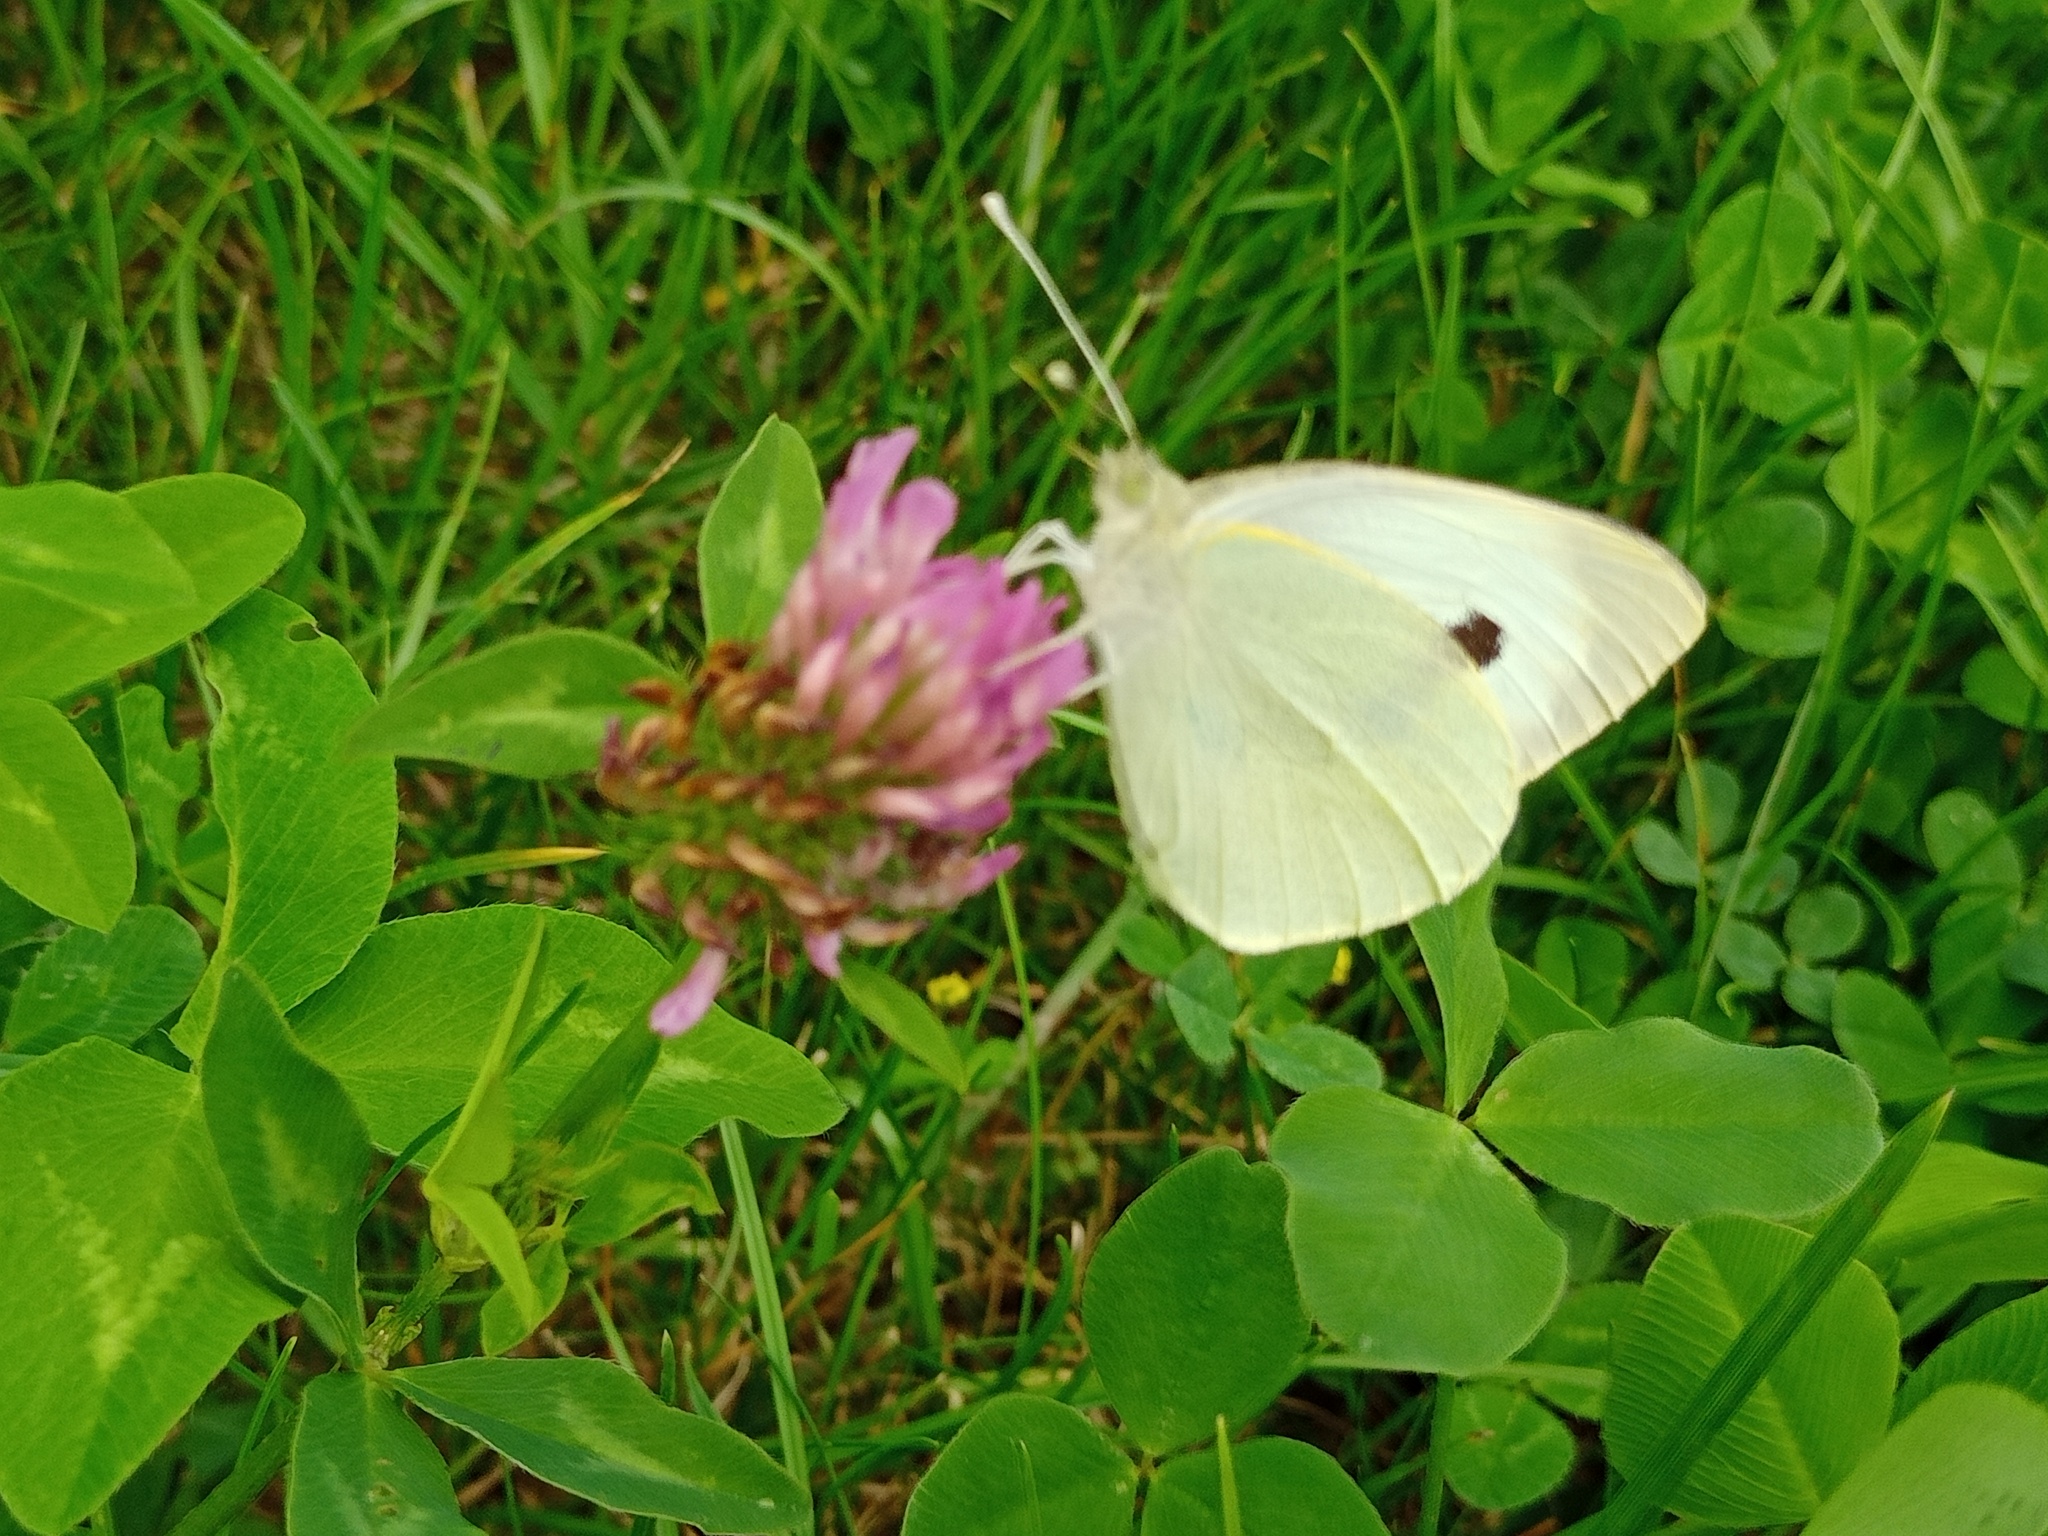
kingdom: Animalia
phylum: Arthropoda
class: Insecta
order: Lepidoptera
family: Pieridae
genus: Pieris
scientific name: Pieris brassicae
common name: Large white
